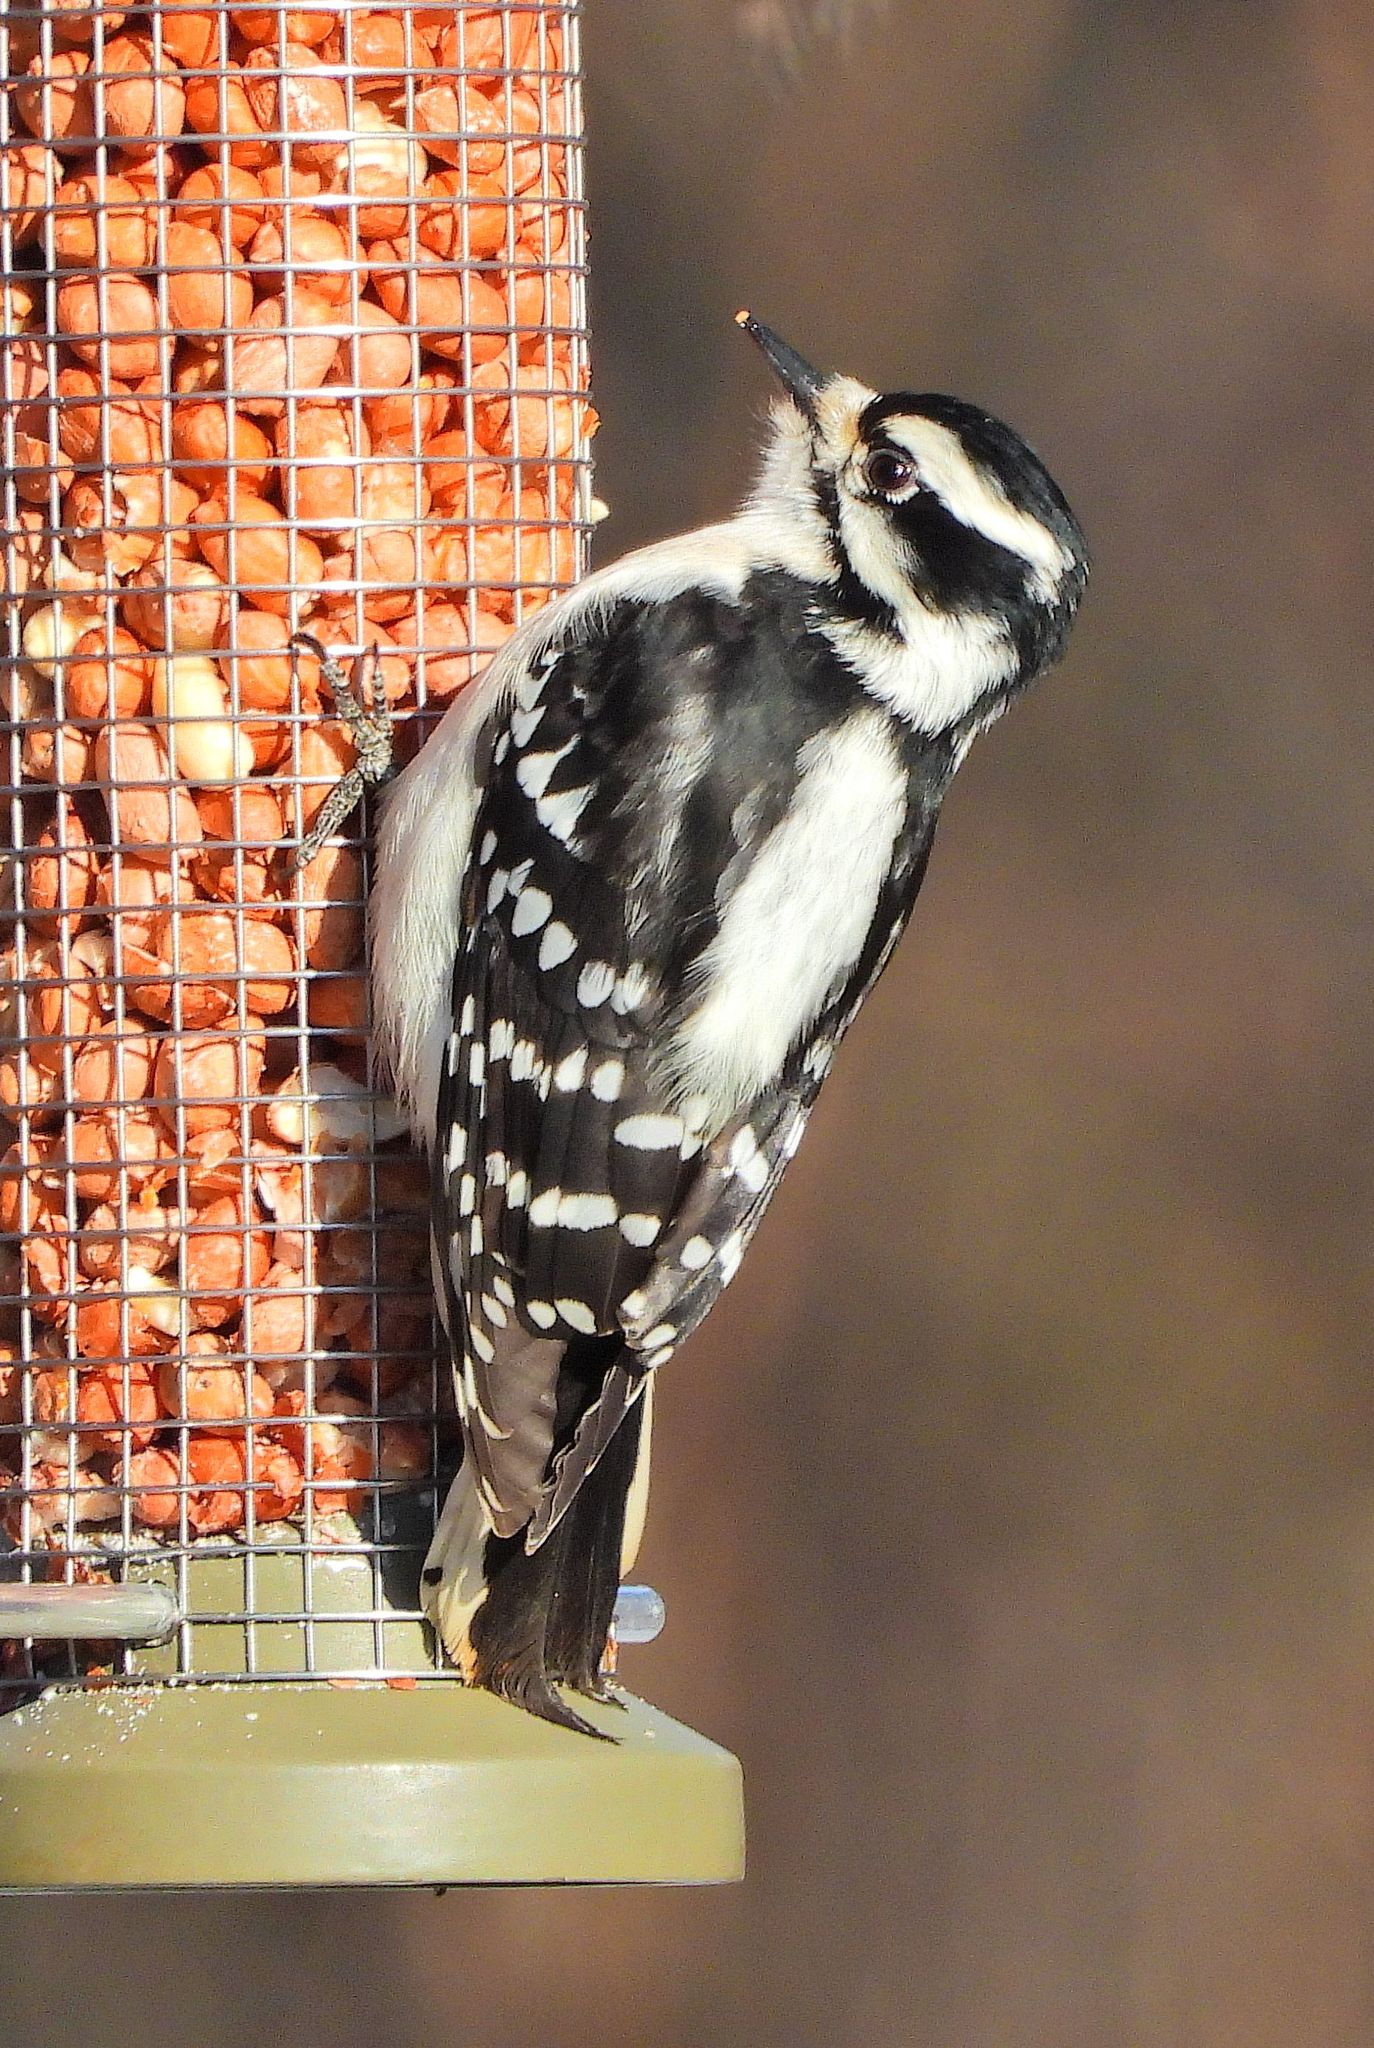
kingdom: Animalia
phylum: Chordata
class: Aves
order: Piciformes
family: Picidae
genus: Dryobates
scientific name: Dryobates pubescens
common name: Downy woodpecker
